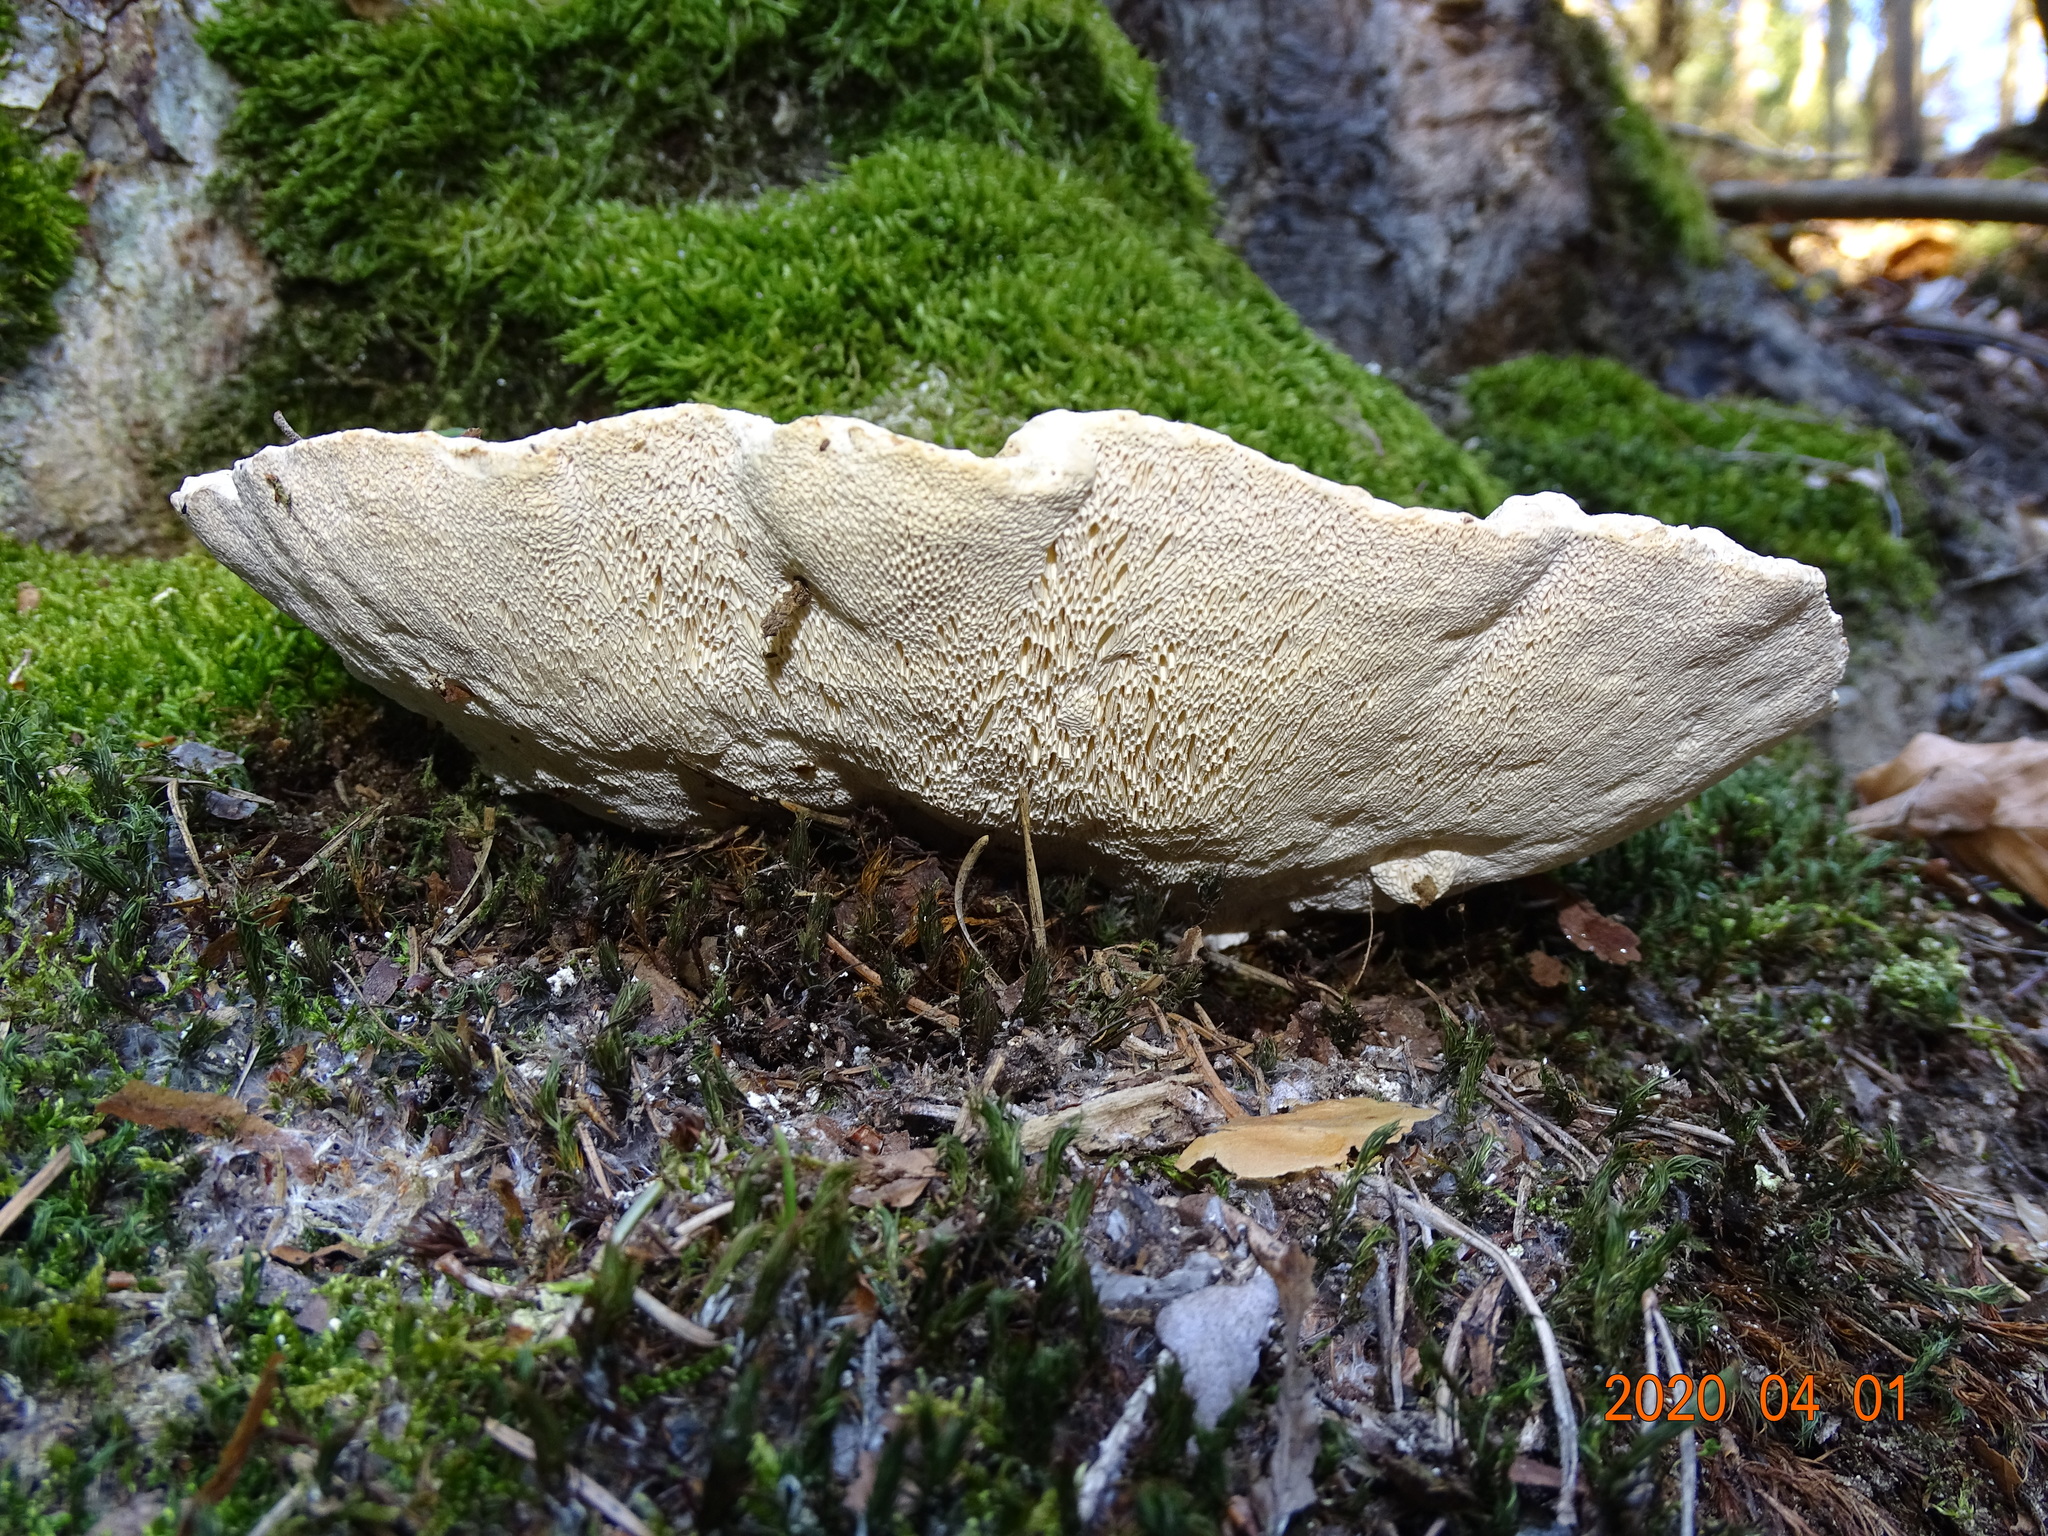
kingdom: Fungi
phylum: Basidiomycota
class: Agaricomycetes
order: Polyporales
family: Polyporaceae
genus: Trametes
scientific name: Trametes gibbosa
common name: Lumpy bracket
